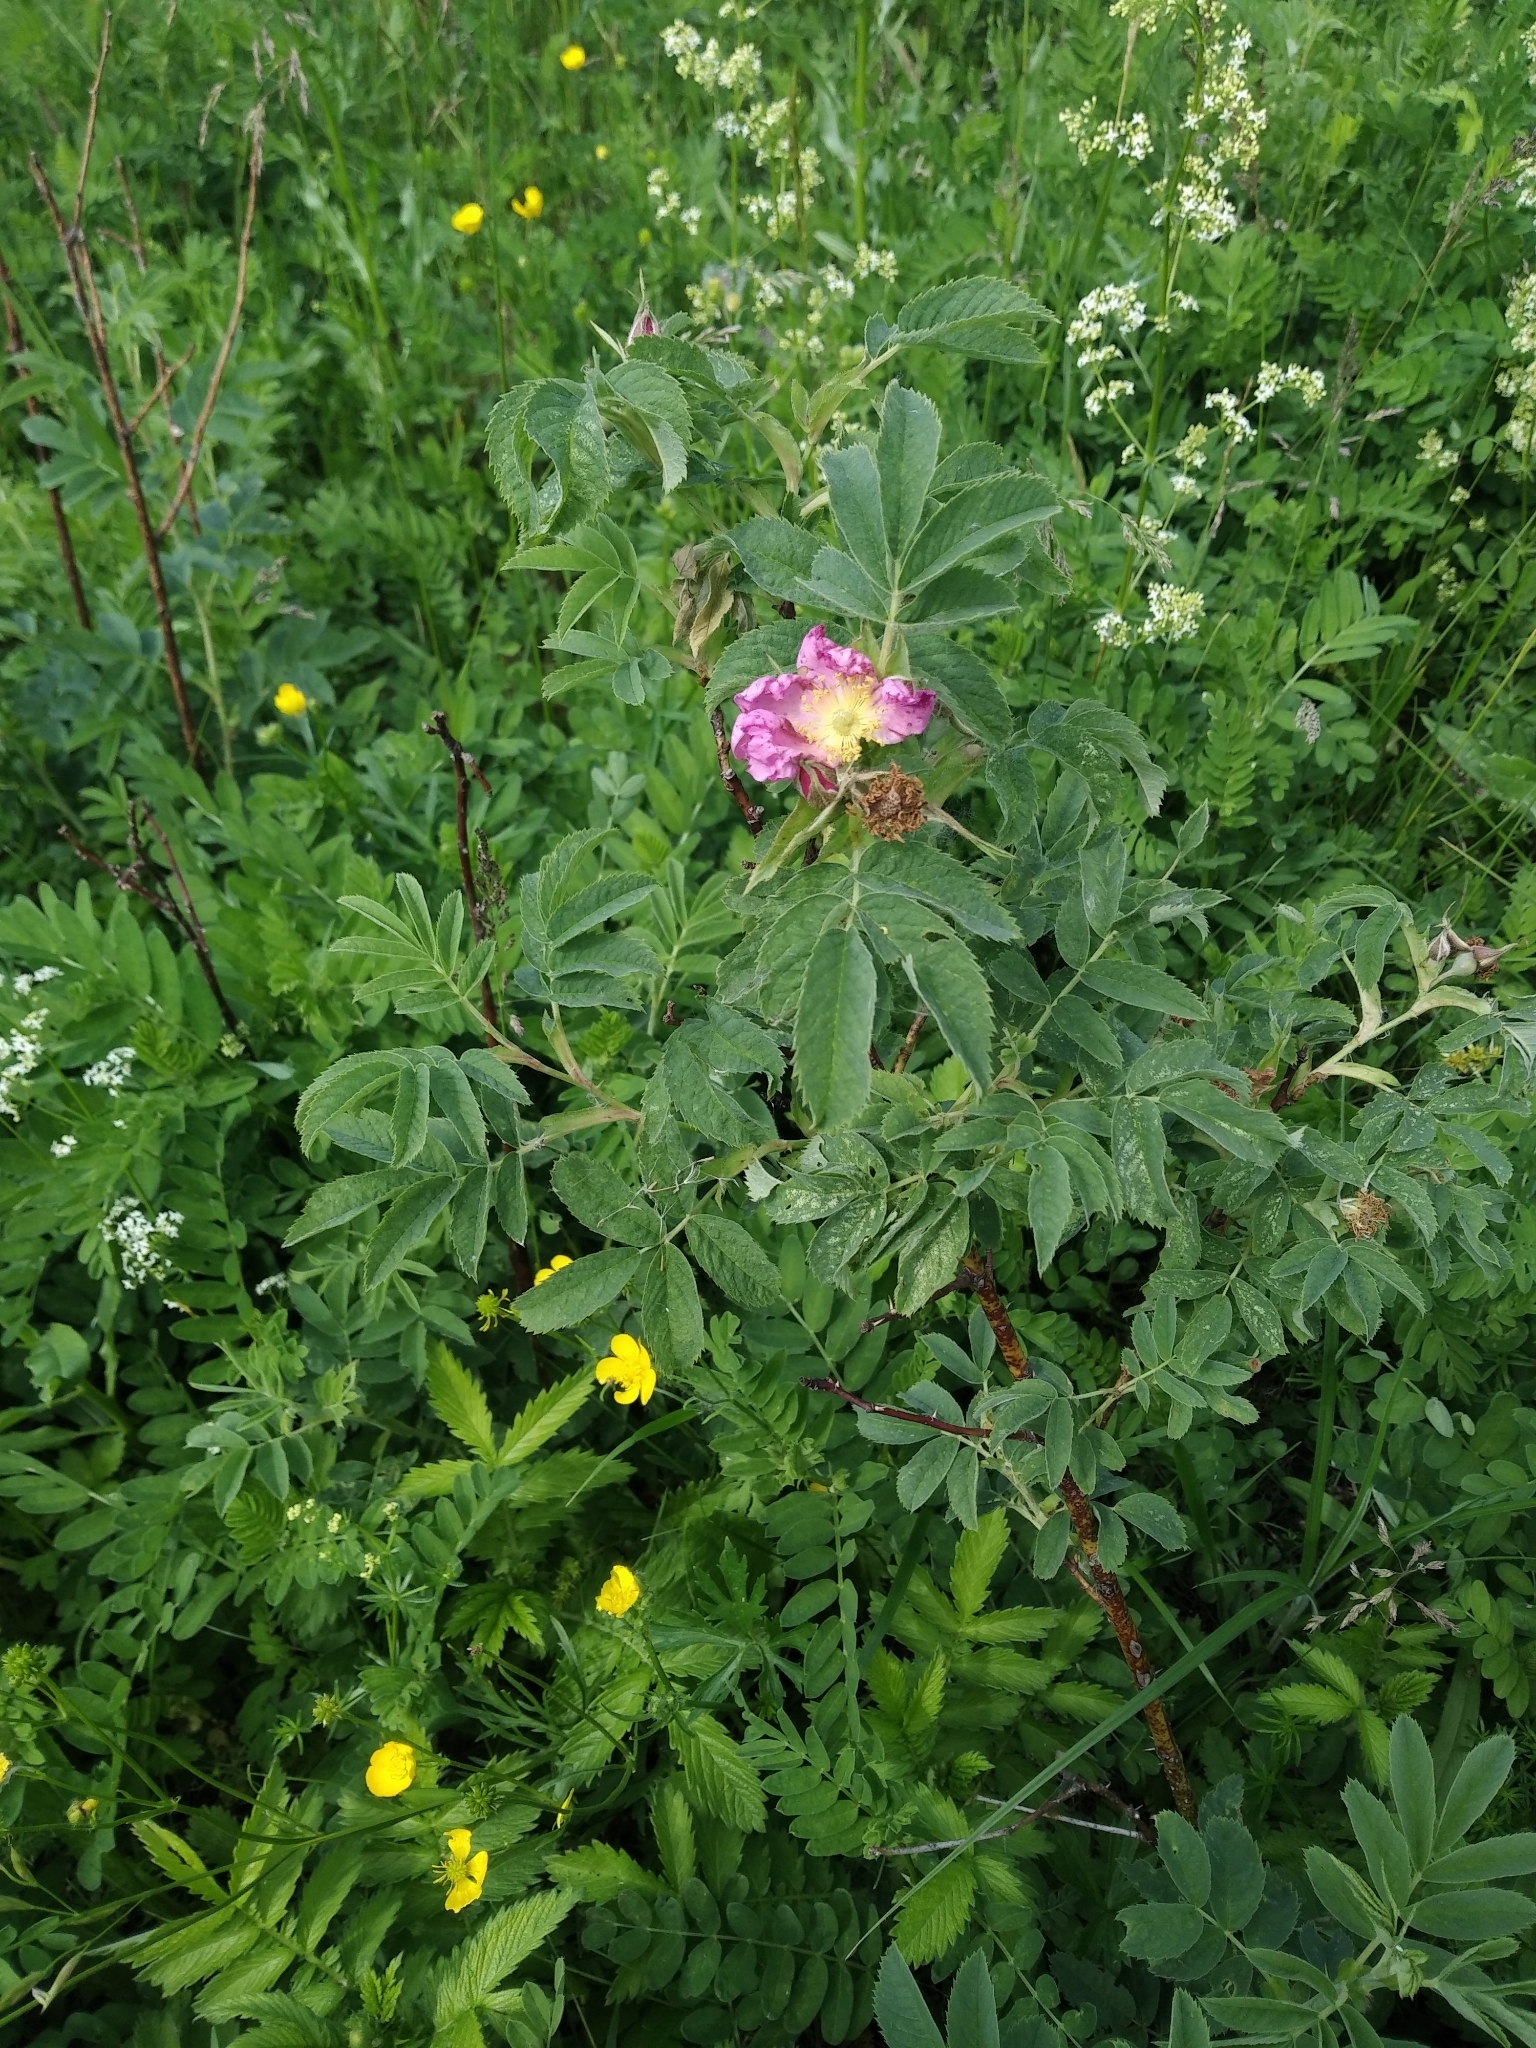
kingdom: Plantae
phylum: Tracheophyta
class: Magnoliopsida
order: Rosales
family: Rosaceae
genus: Rosa
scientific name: Rosa majalis
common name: Cinnamon rose
